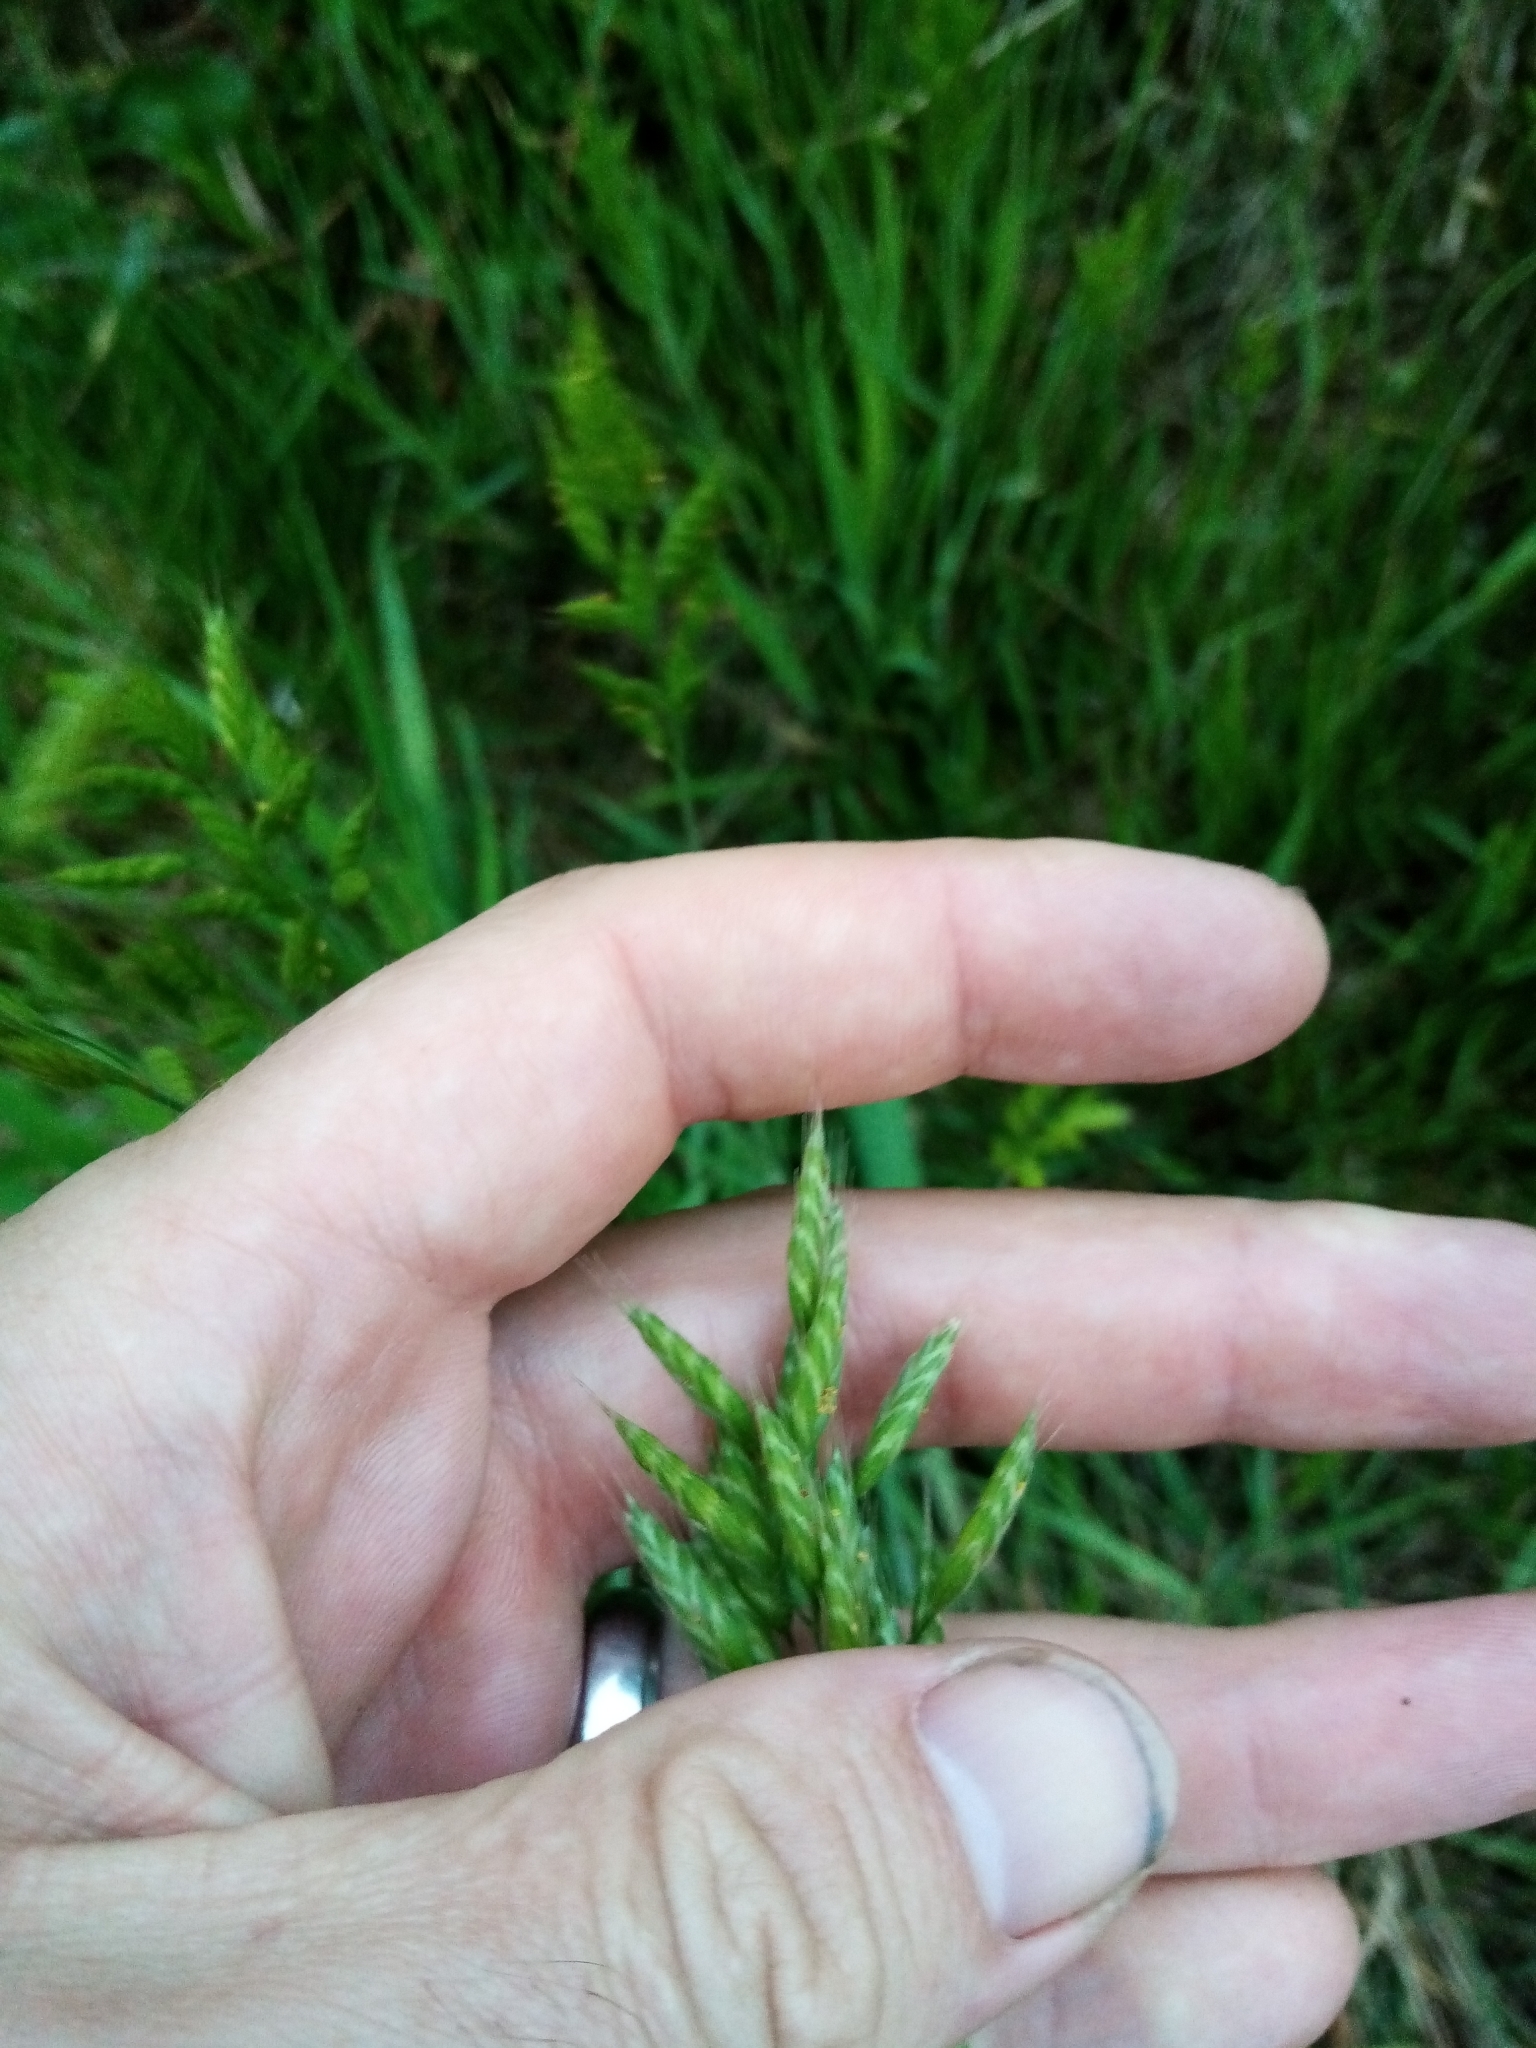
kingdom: Plantae
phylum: Tracheophyta
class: Liliopsida
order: Poales
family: Poaceae
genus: Bromus
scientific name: Bromus hordeaceus
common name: Soft brome
